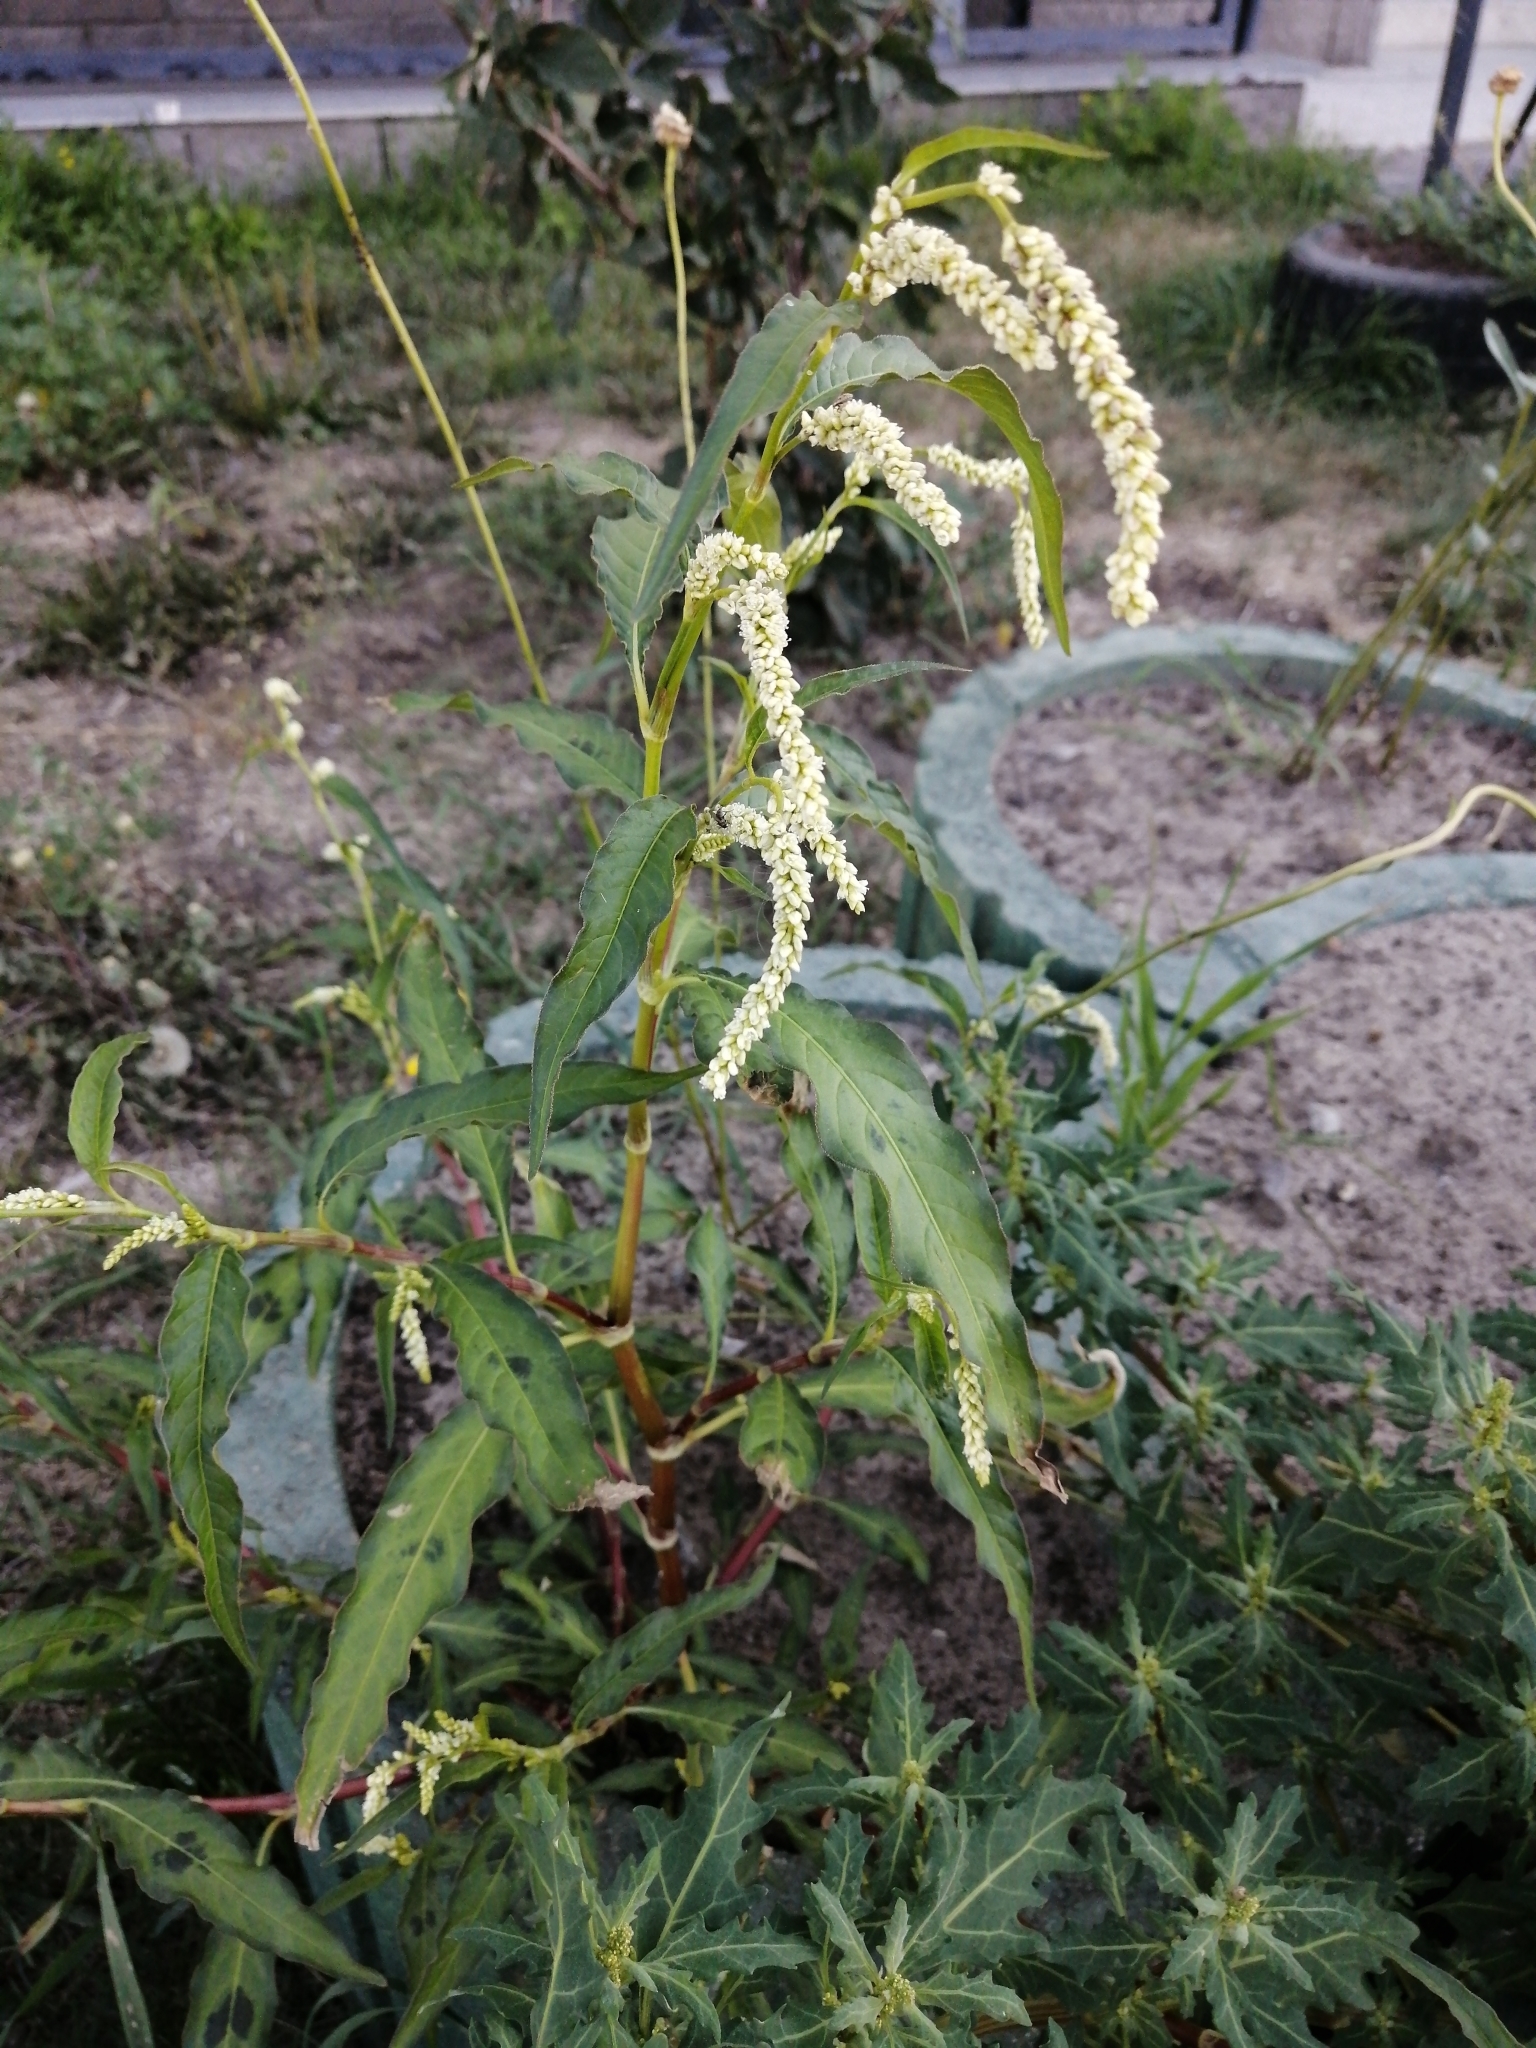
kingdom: Plantae
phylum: Tracheophyta
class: Magnoliopsida
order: Caryophyllales
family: Polygonaceae
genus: Persicaria
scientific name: Persicaria lapathifolia
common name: Curlytop knotweed
